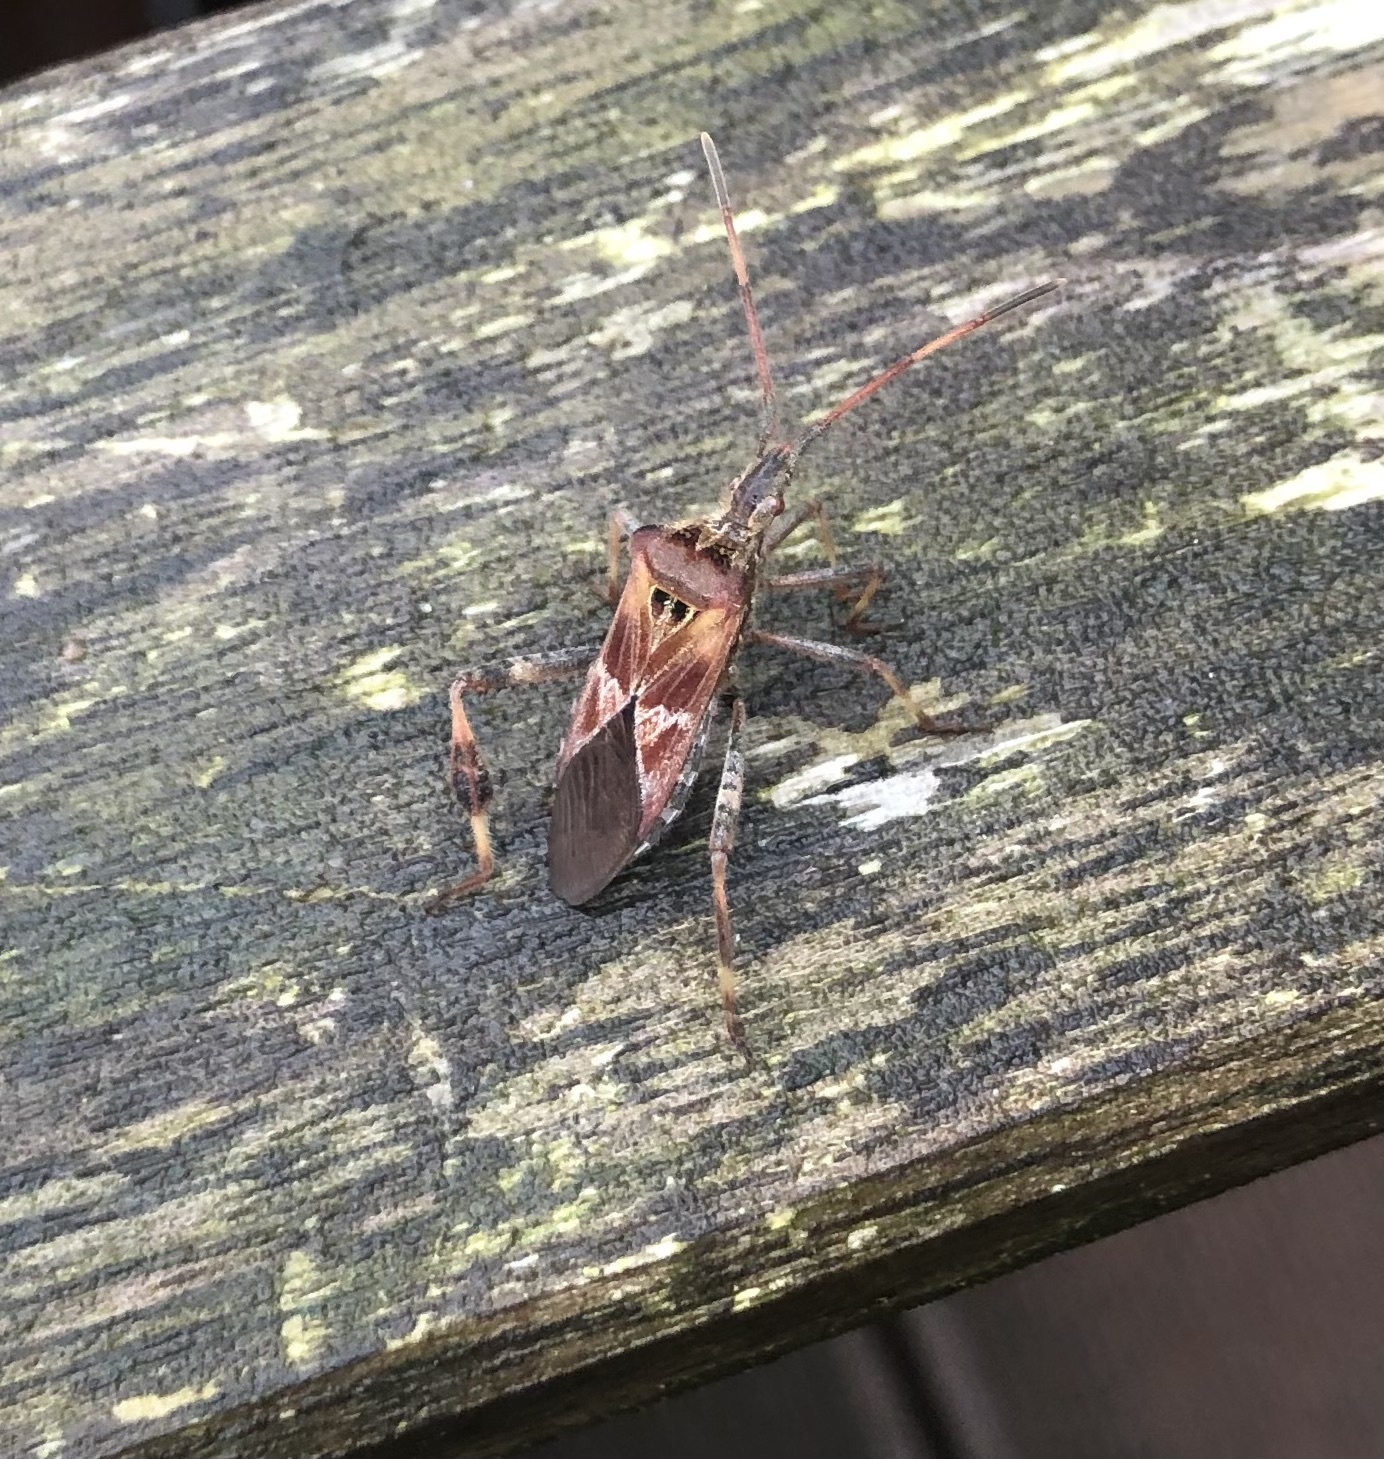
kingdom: Animalia
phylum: Arthropoda
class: Insecta
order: Hemiptera
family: Coreidae
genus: Leptoglossus
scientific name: Leptoglossus occidentalis
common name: Western conifer-seed bug
